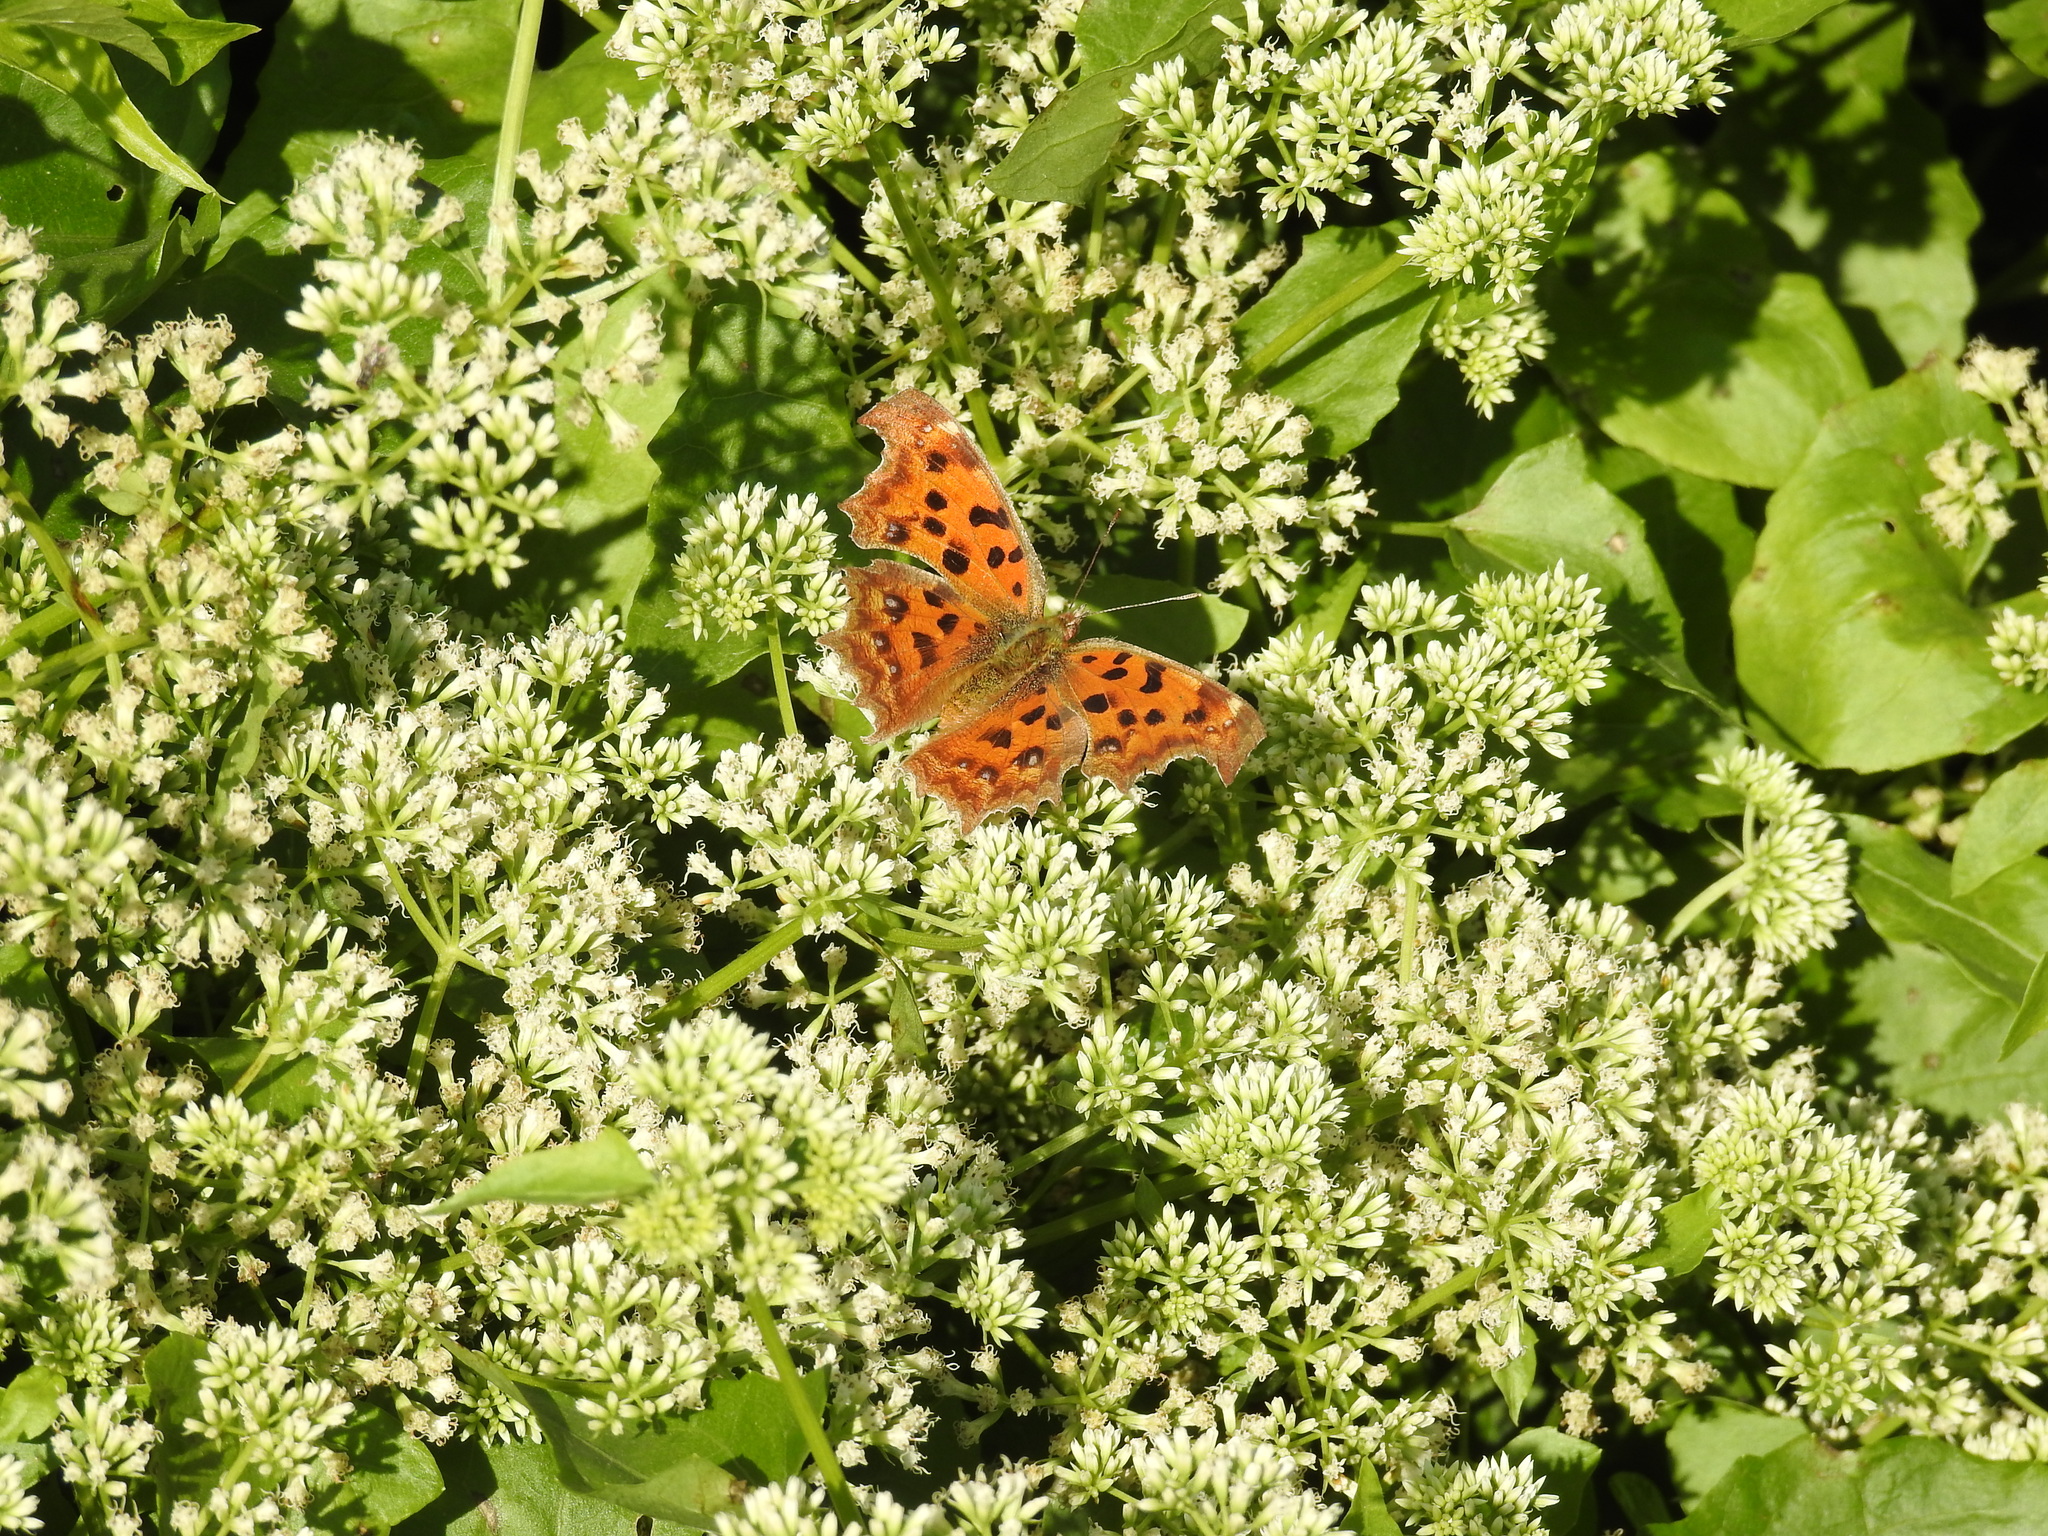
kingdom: Animalia
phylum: Arthropoda
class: Insecta
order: Lepidoptera
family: Nymphalidae
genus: Polygonia
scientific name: Polygonia c-aureum
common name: Asian comma
